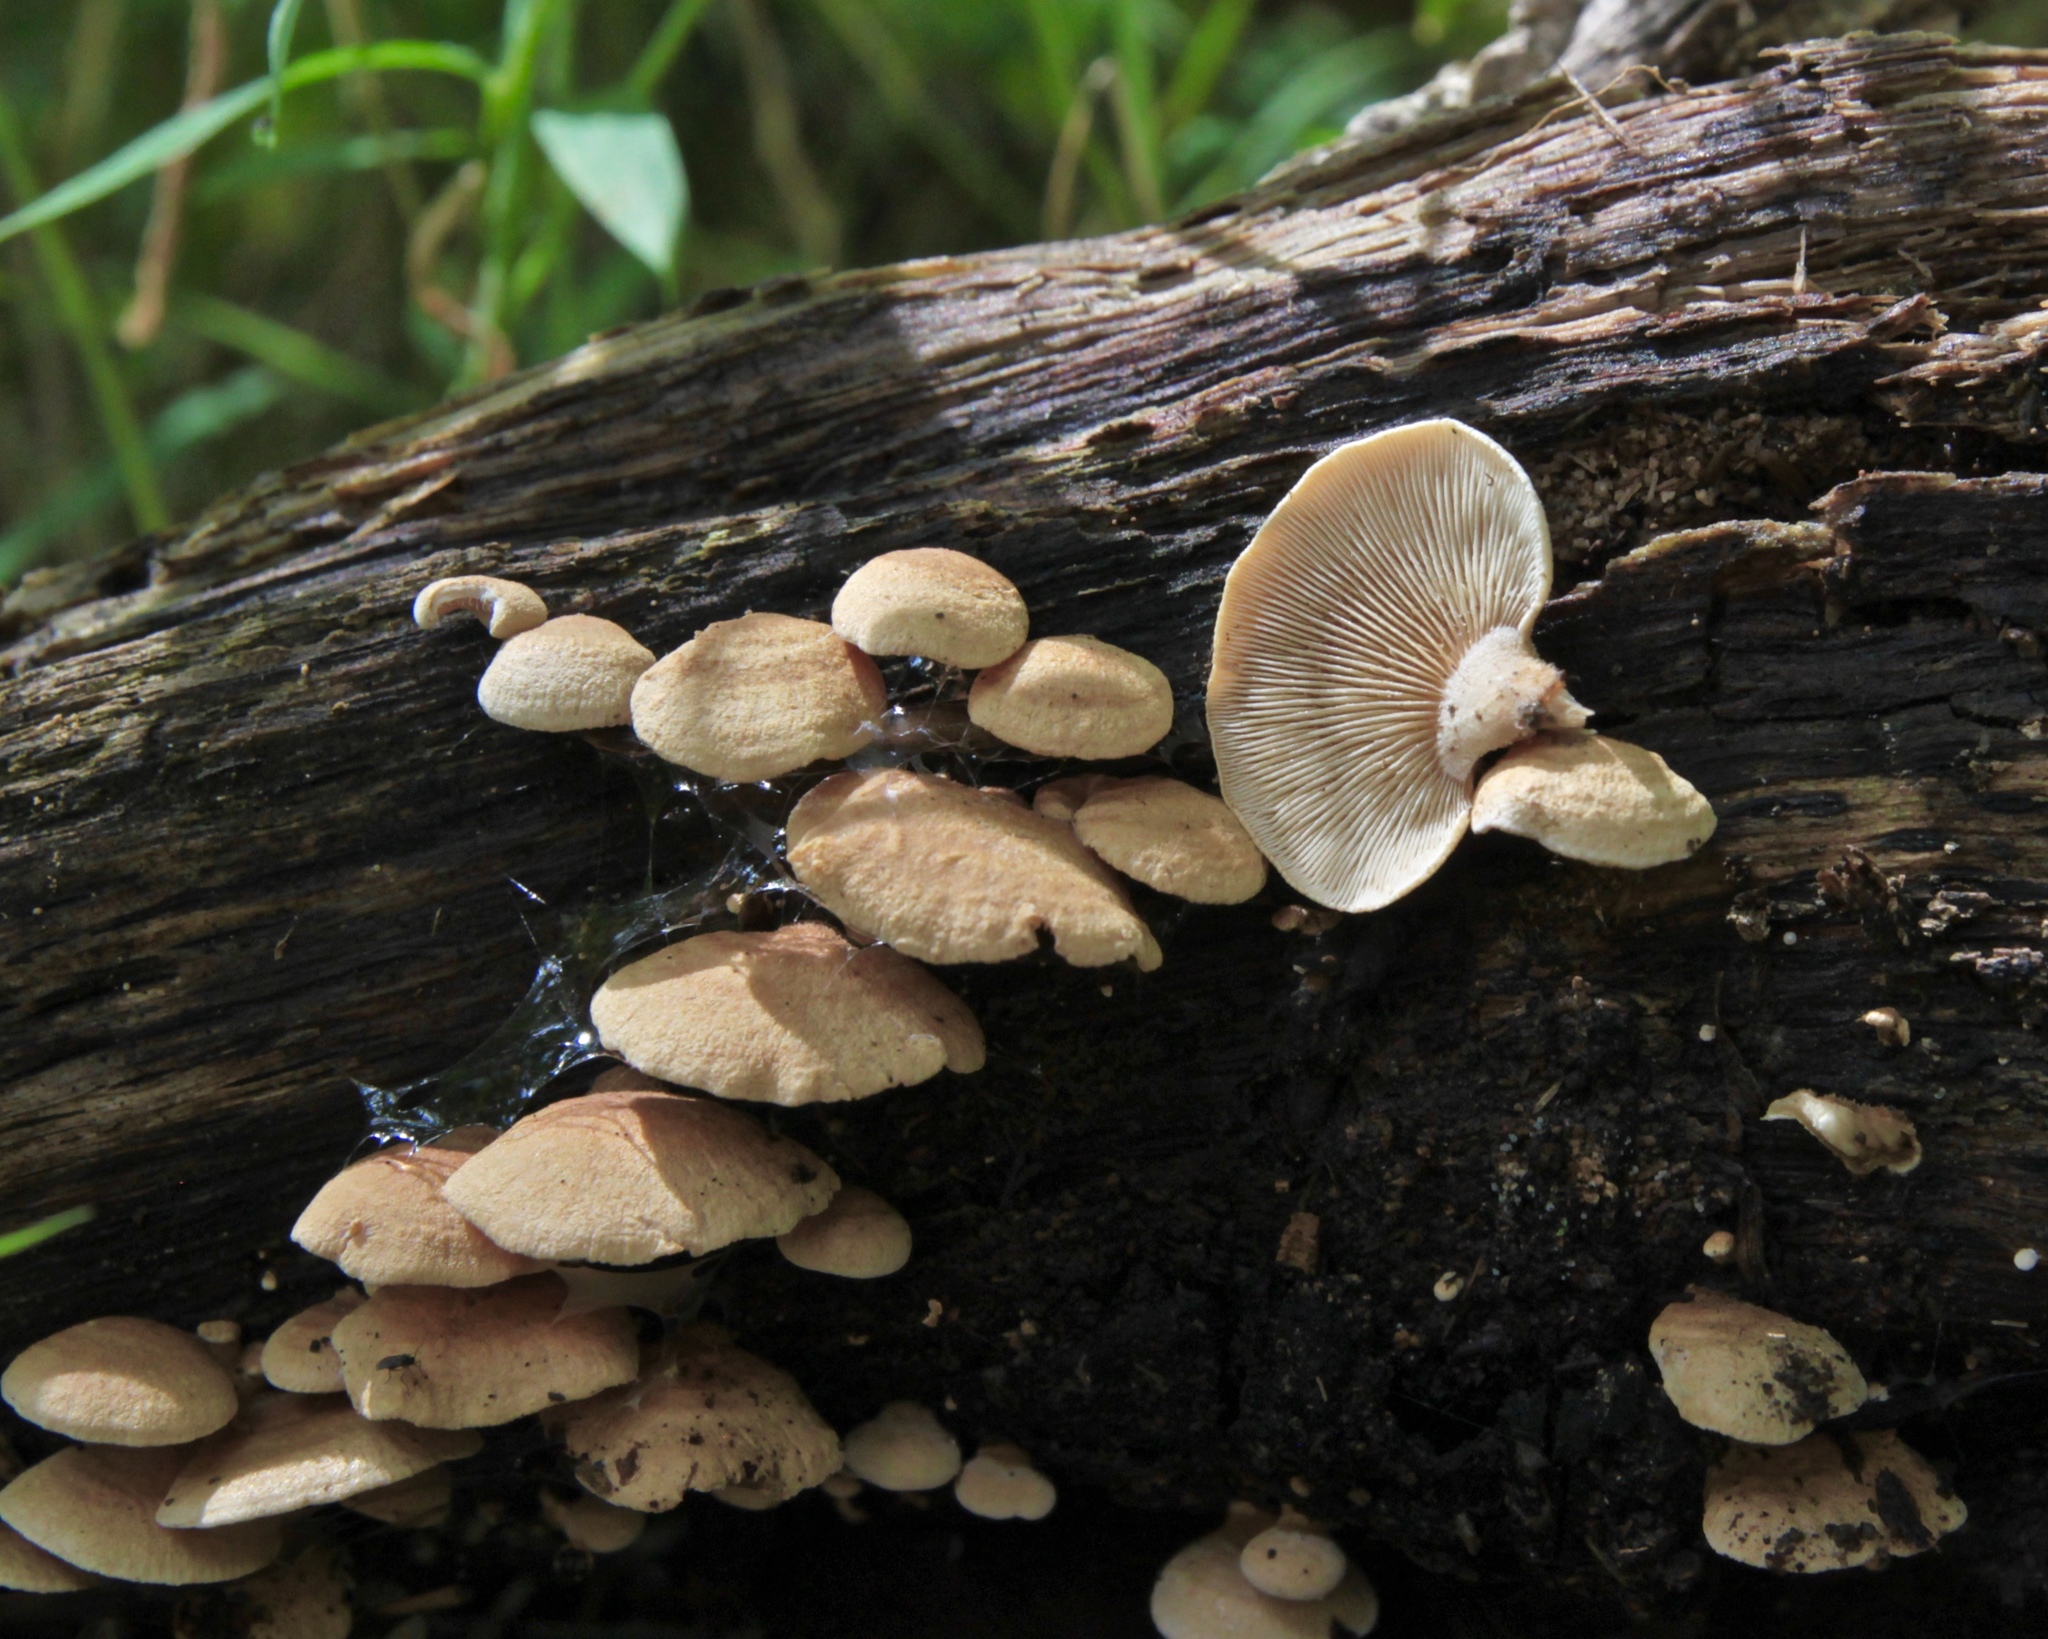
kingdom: Fungi
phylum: Basidiomycota
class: Agaricomycetes
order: Agaricales
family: Mycenaceae
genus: Panellus
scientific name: Panellus stipticus
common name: Bitter oysterling
